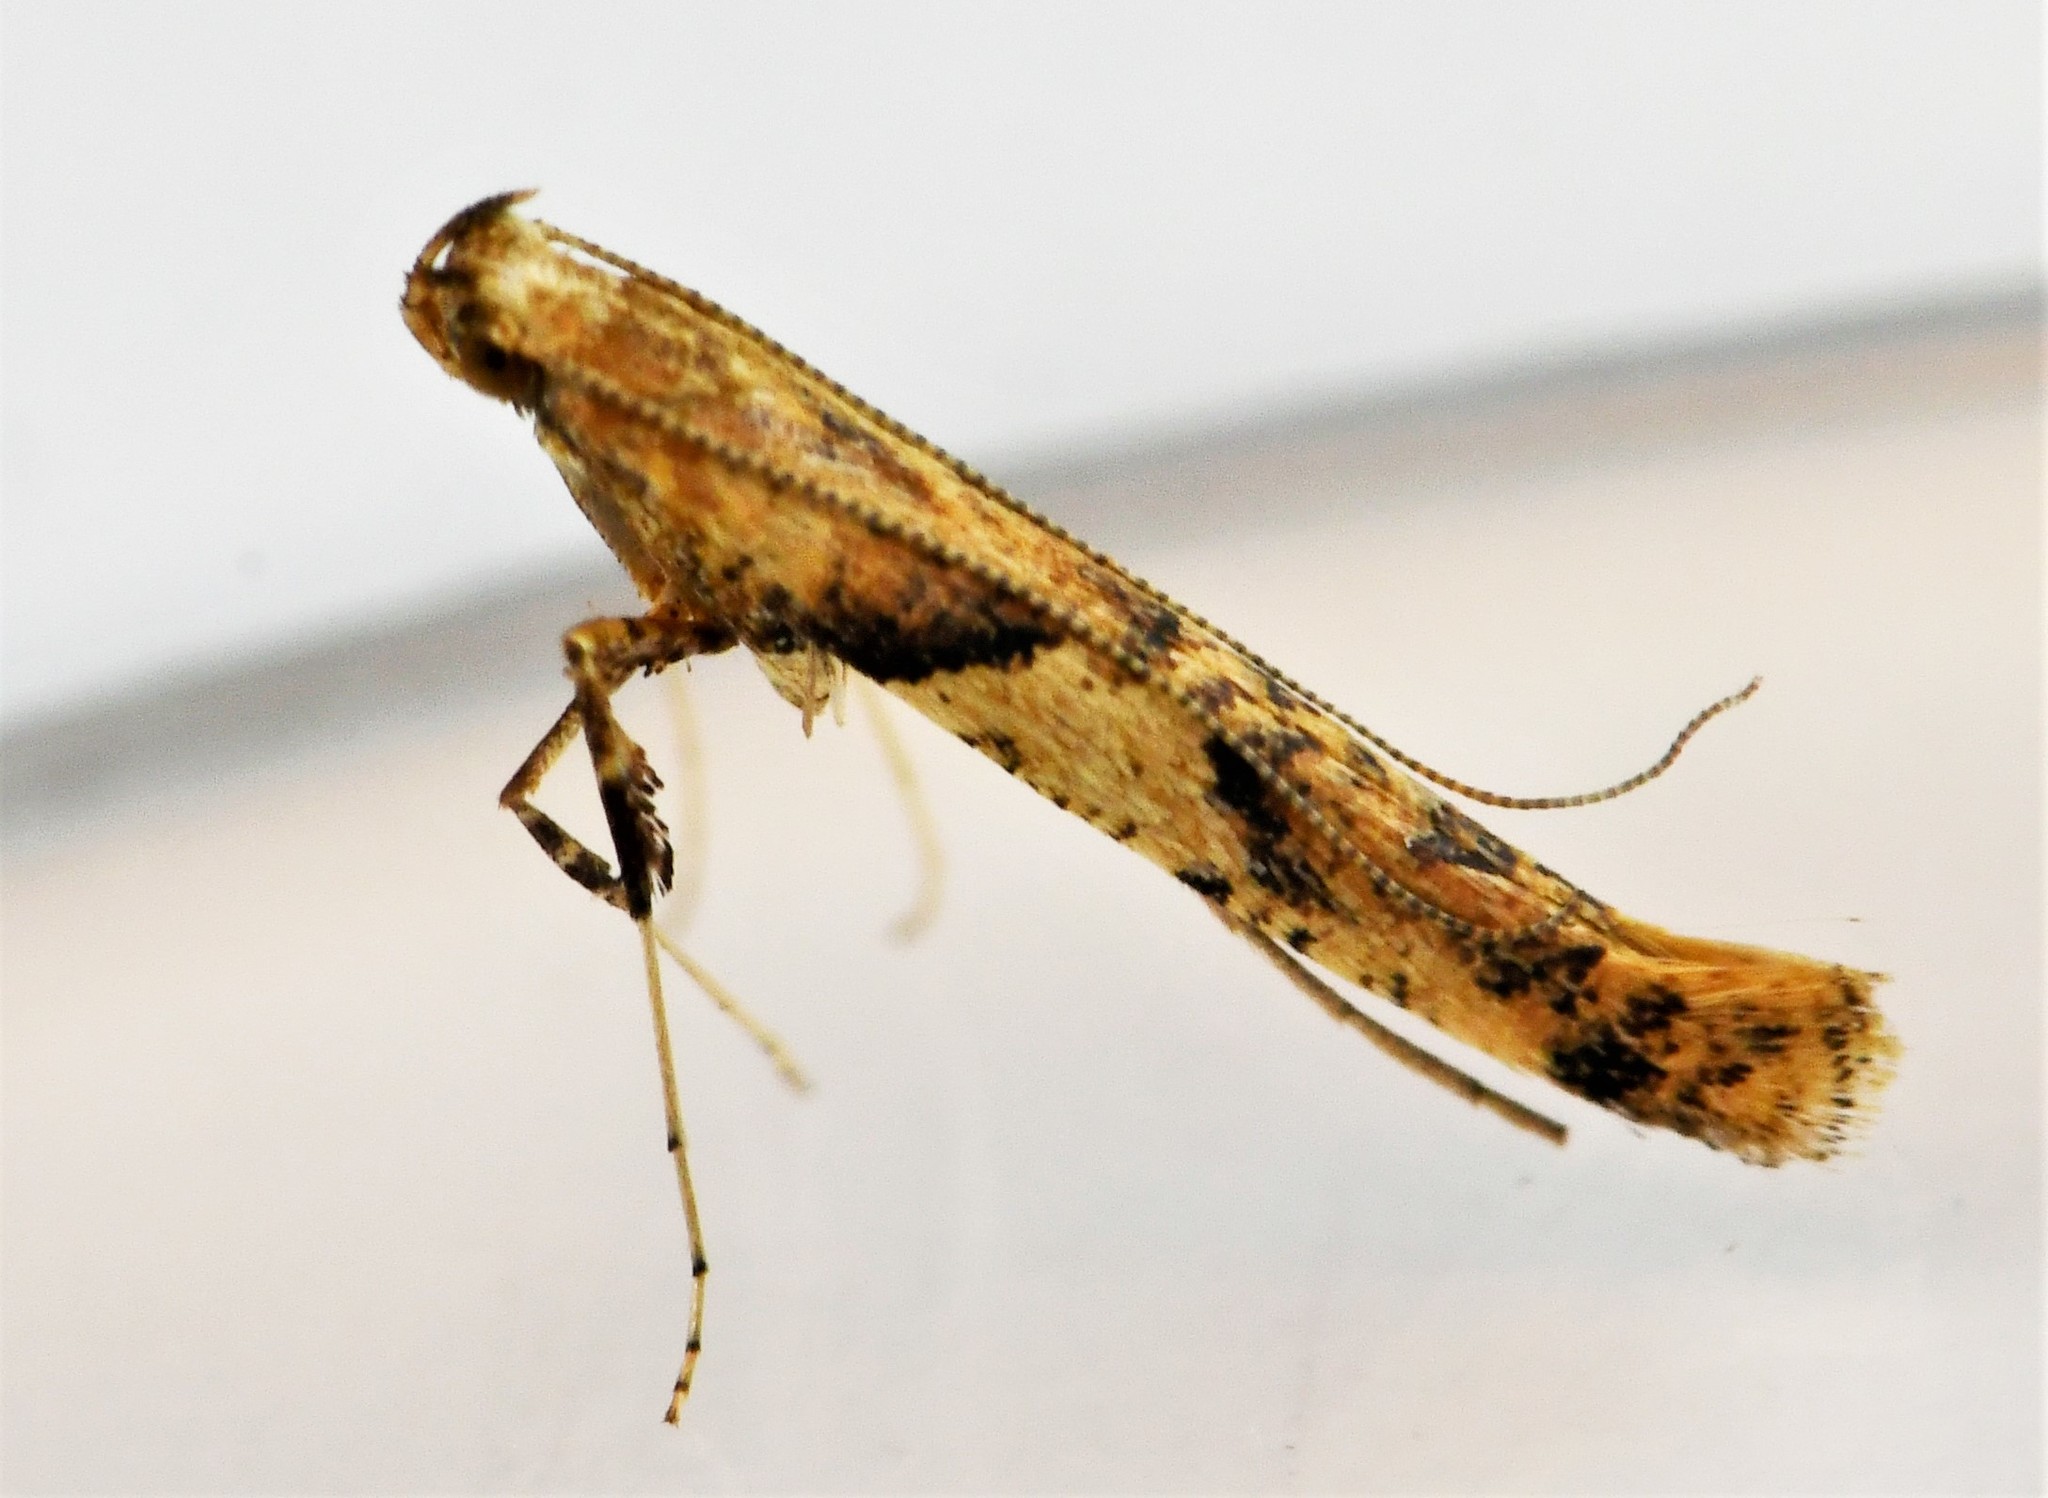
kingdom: Animalia
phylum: Arthropoda
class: Insecta
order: Lepidoptera
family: Gracillariidae
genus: Caloptilia
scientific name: Caloptilia honoratella
